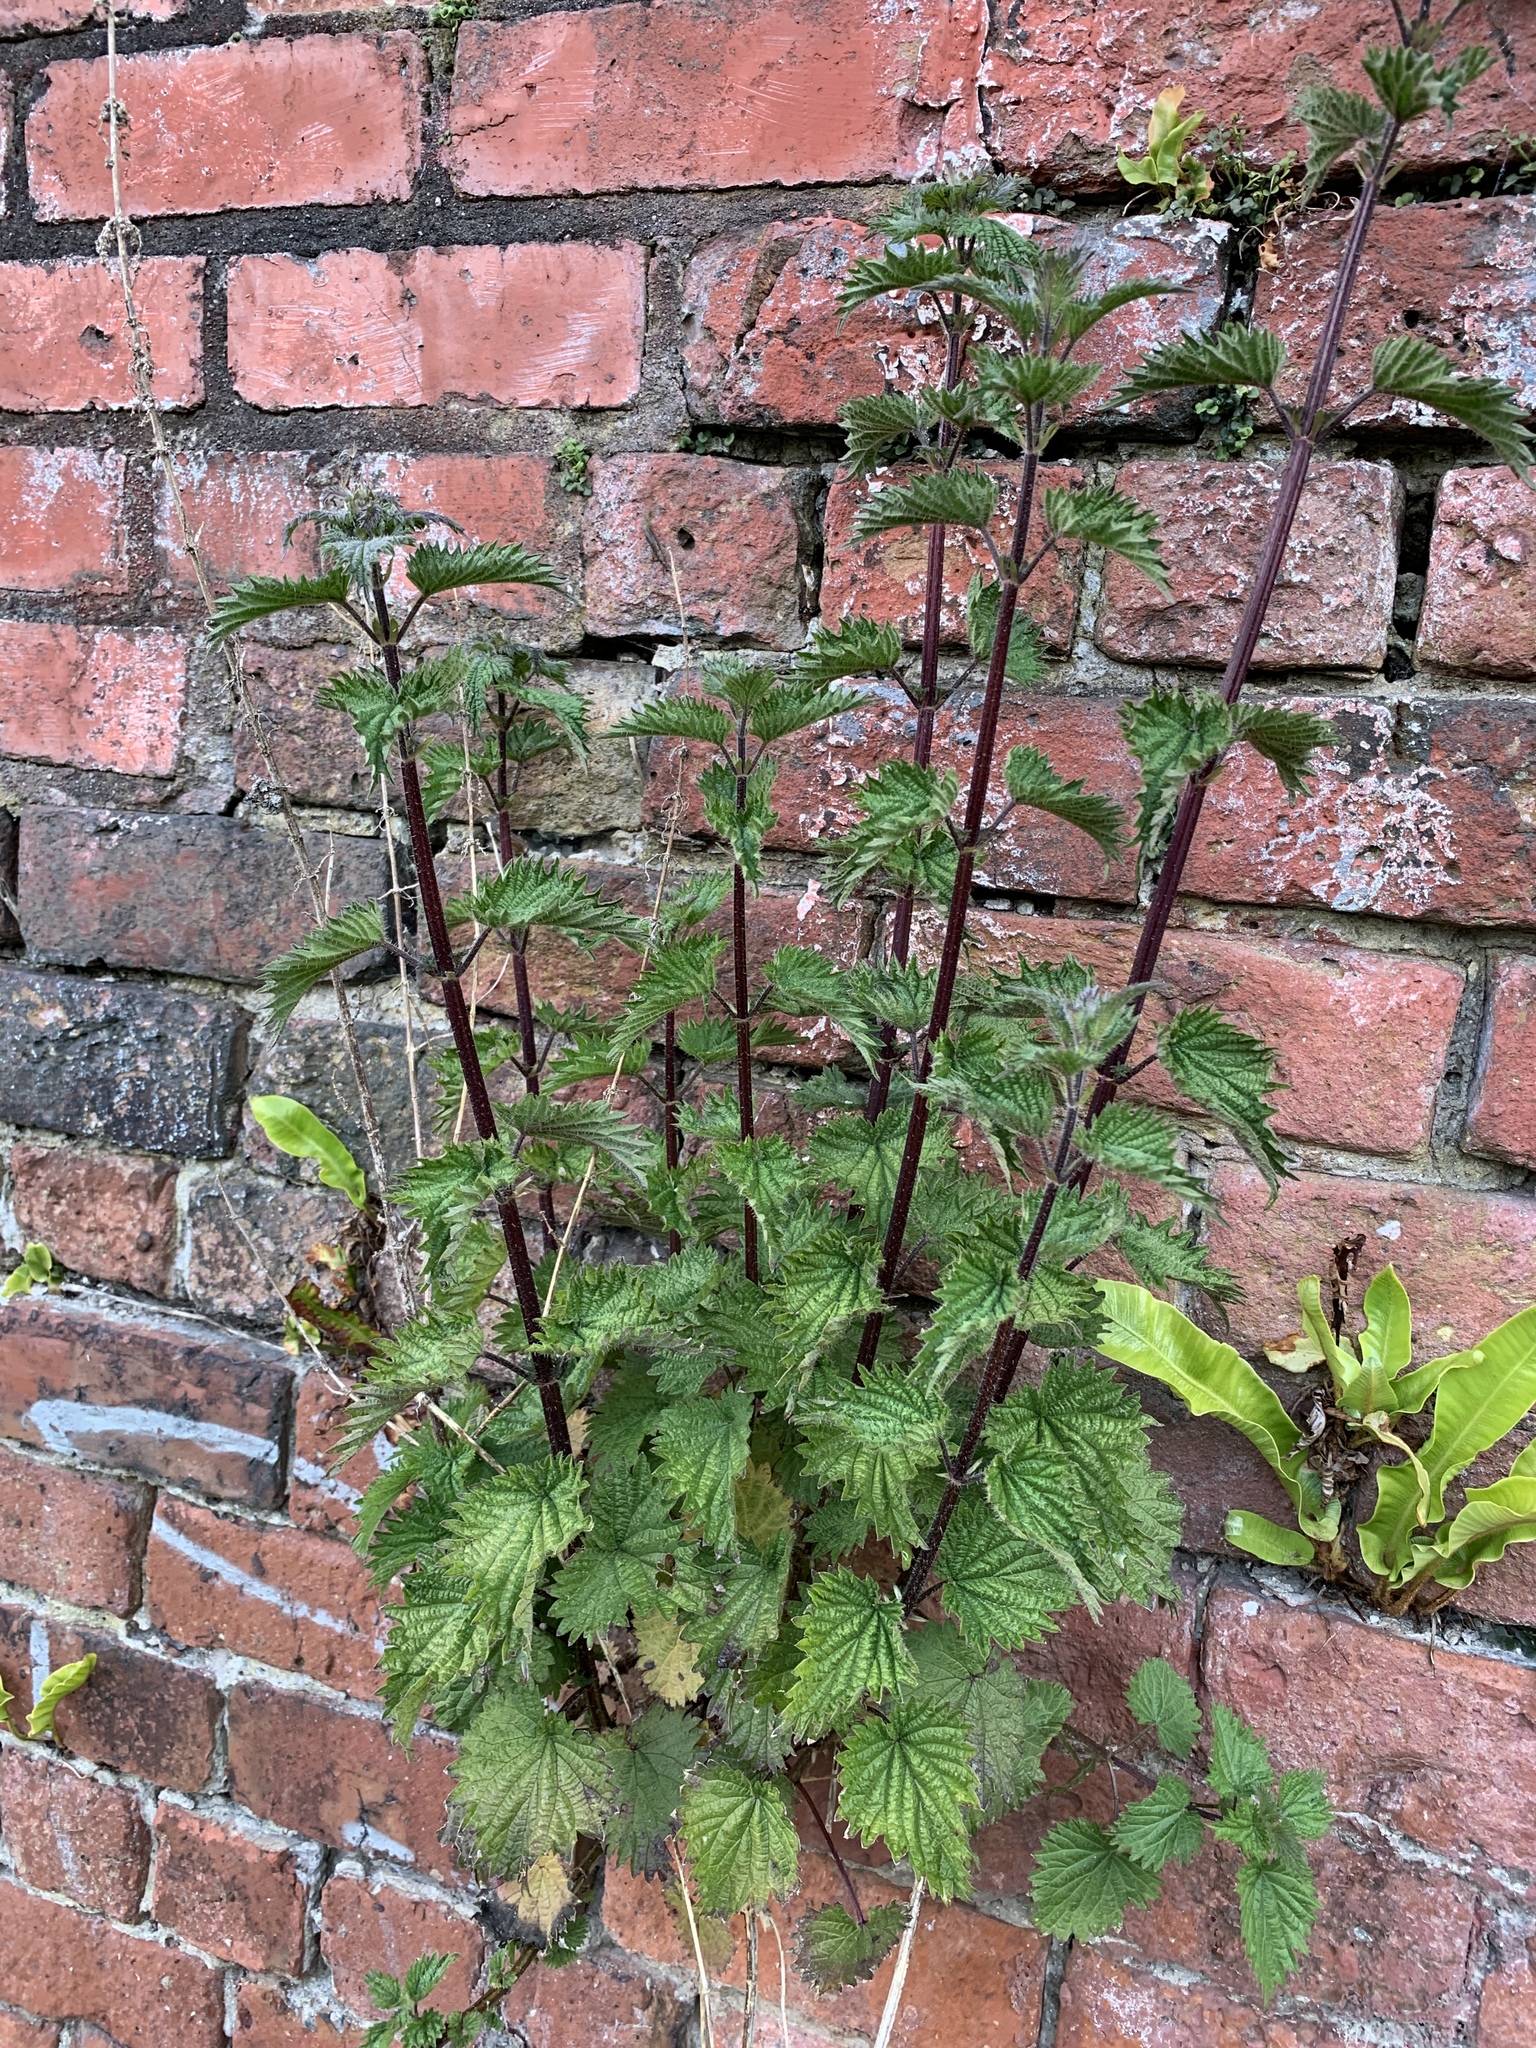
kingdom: Plantae
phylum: Tracheophyta
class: Magnoliopsida
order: Rosales
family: Urticaceae
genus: Urtica
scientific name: Urtica dioica
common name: Common nettle
